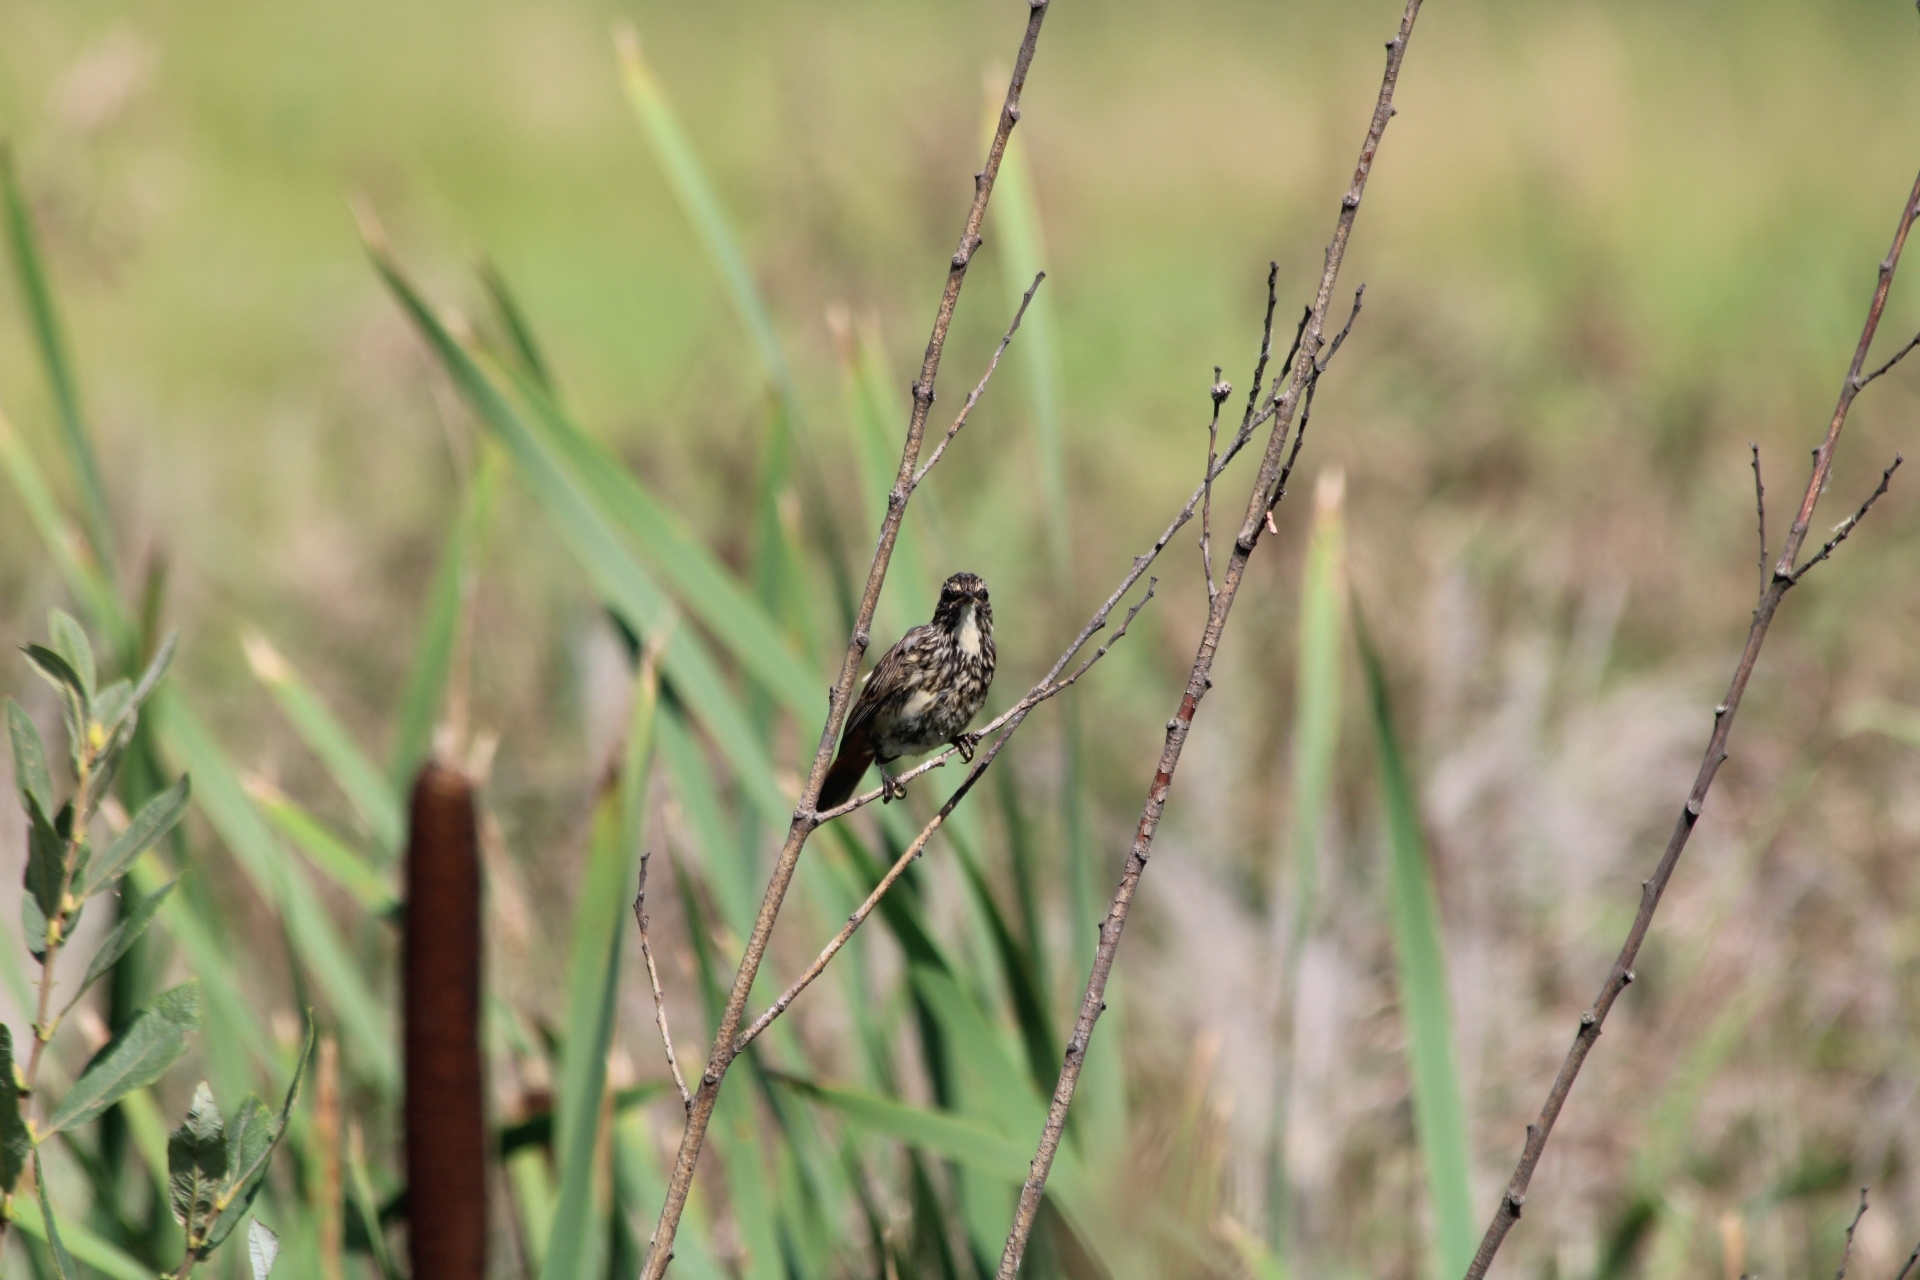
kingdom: Animalia
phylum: Chordata
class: Aves
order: Passeriformes
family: Muscicapidae
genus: Luscinia
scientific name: Luscinia svecica
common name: Bluethroat
